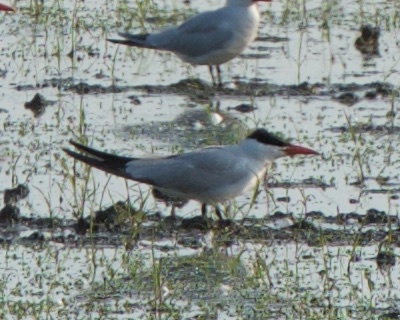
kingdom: Animalia
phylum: Chordata
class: Aves
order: Charadriiformes
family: Laridae
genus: Hydroprogne
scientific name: Hydroprogne caspia
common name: Caspian tern
